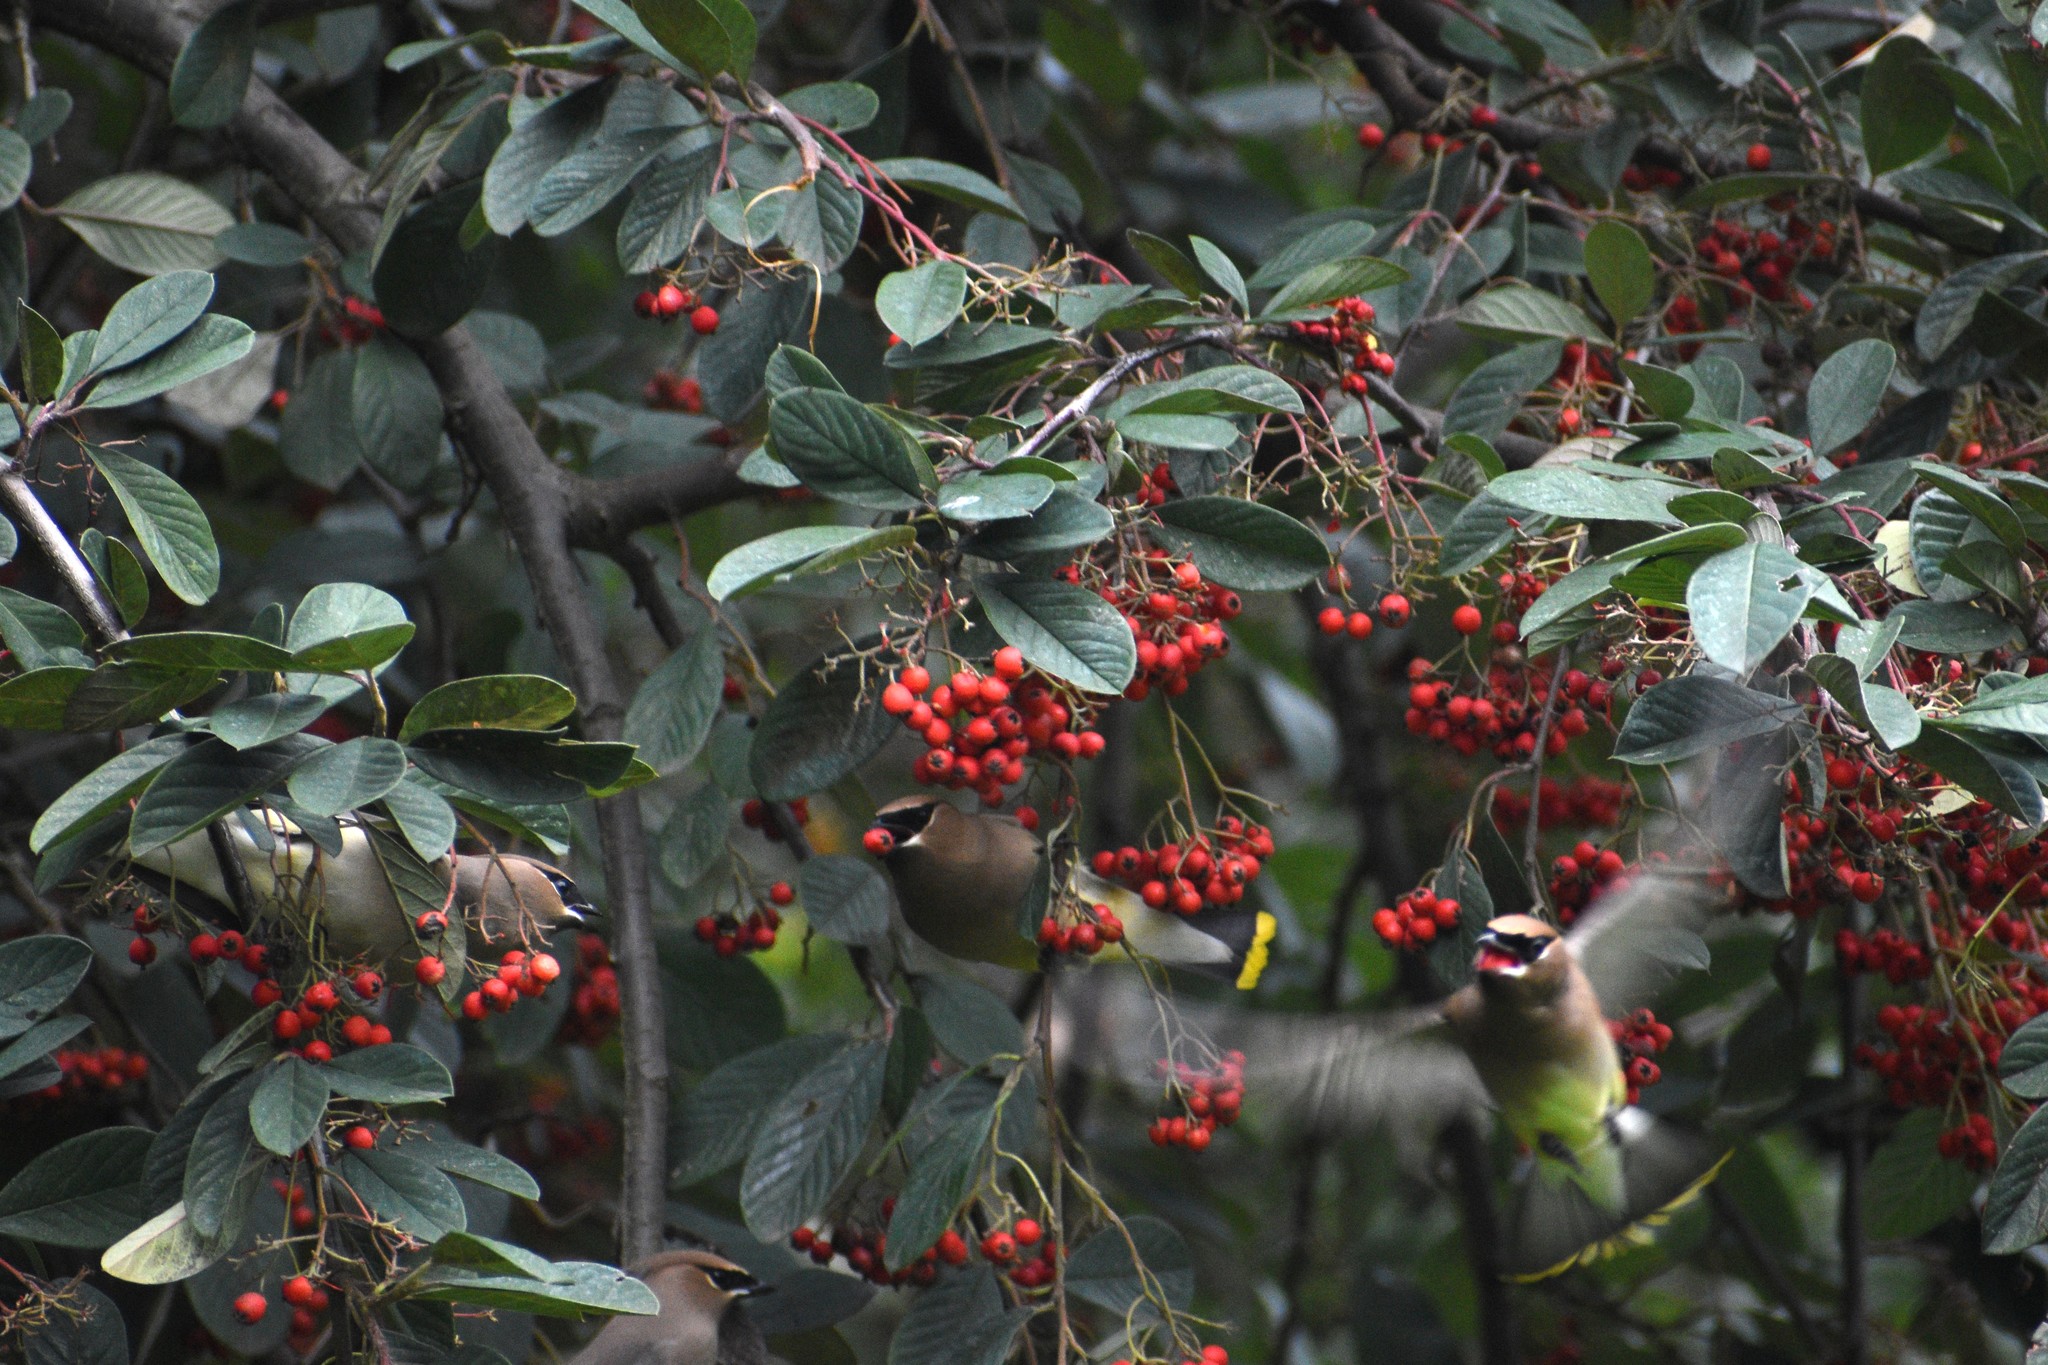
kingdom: Animalia
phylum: Chordata
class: Aves
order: Passeriformes
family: Bombycillidae
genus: Bombycilla
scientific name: Bombycilla cedrorum
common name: Cedar waxwing
